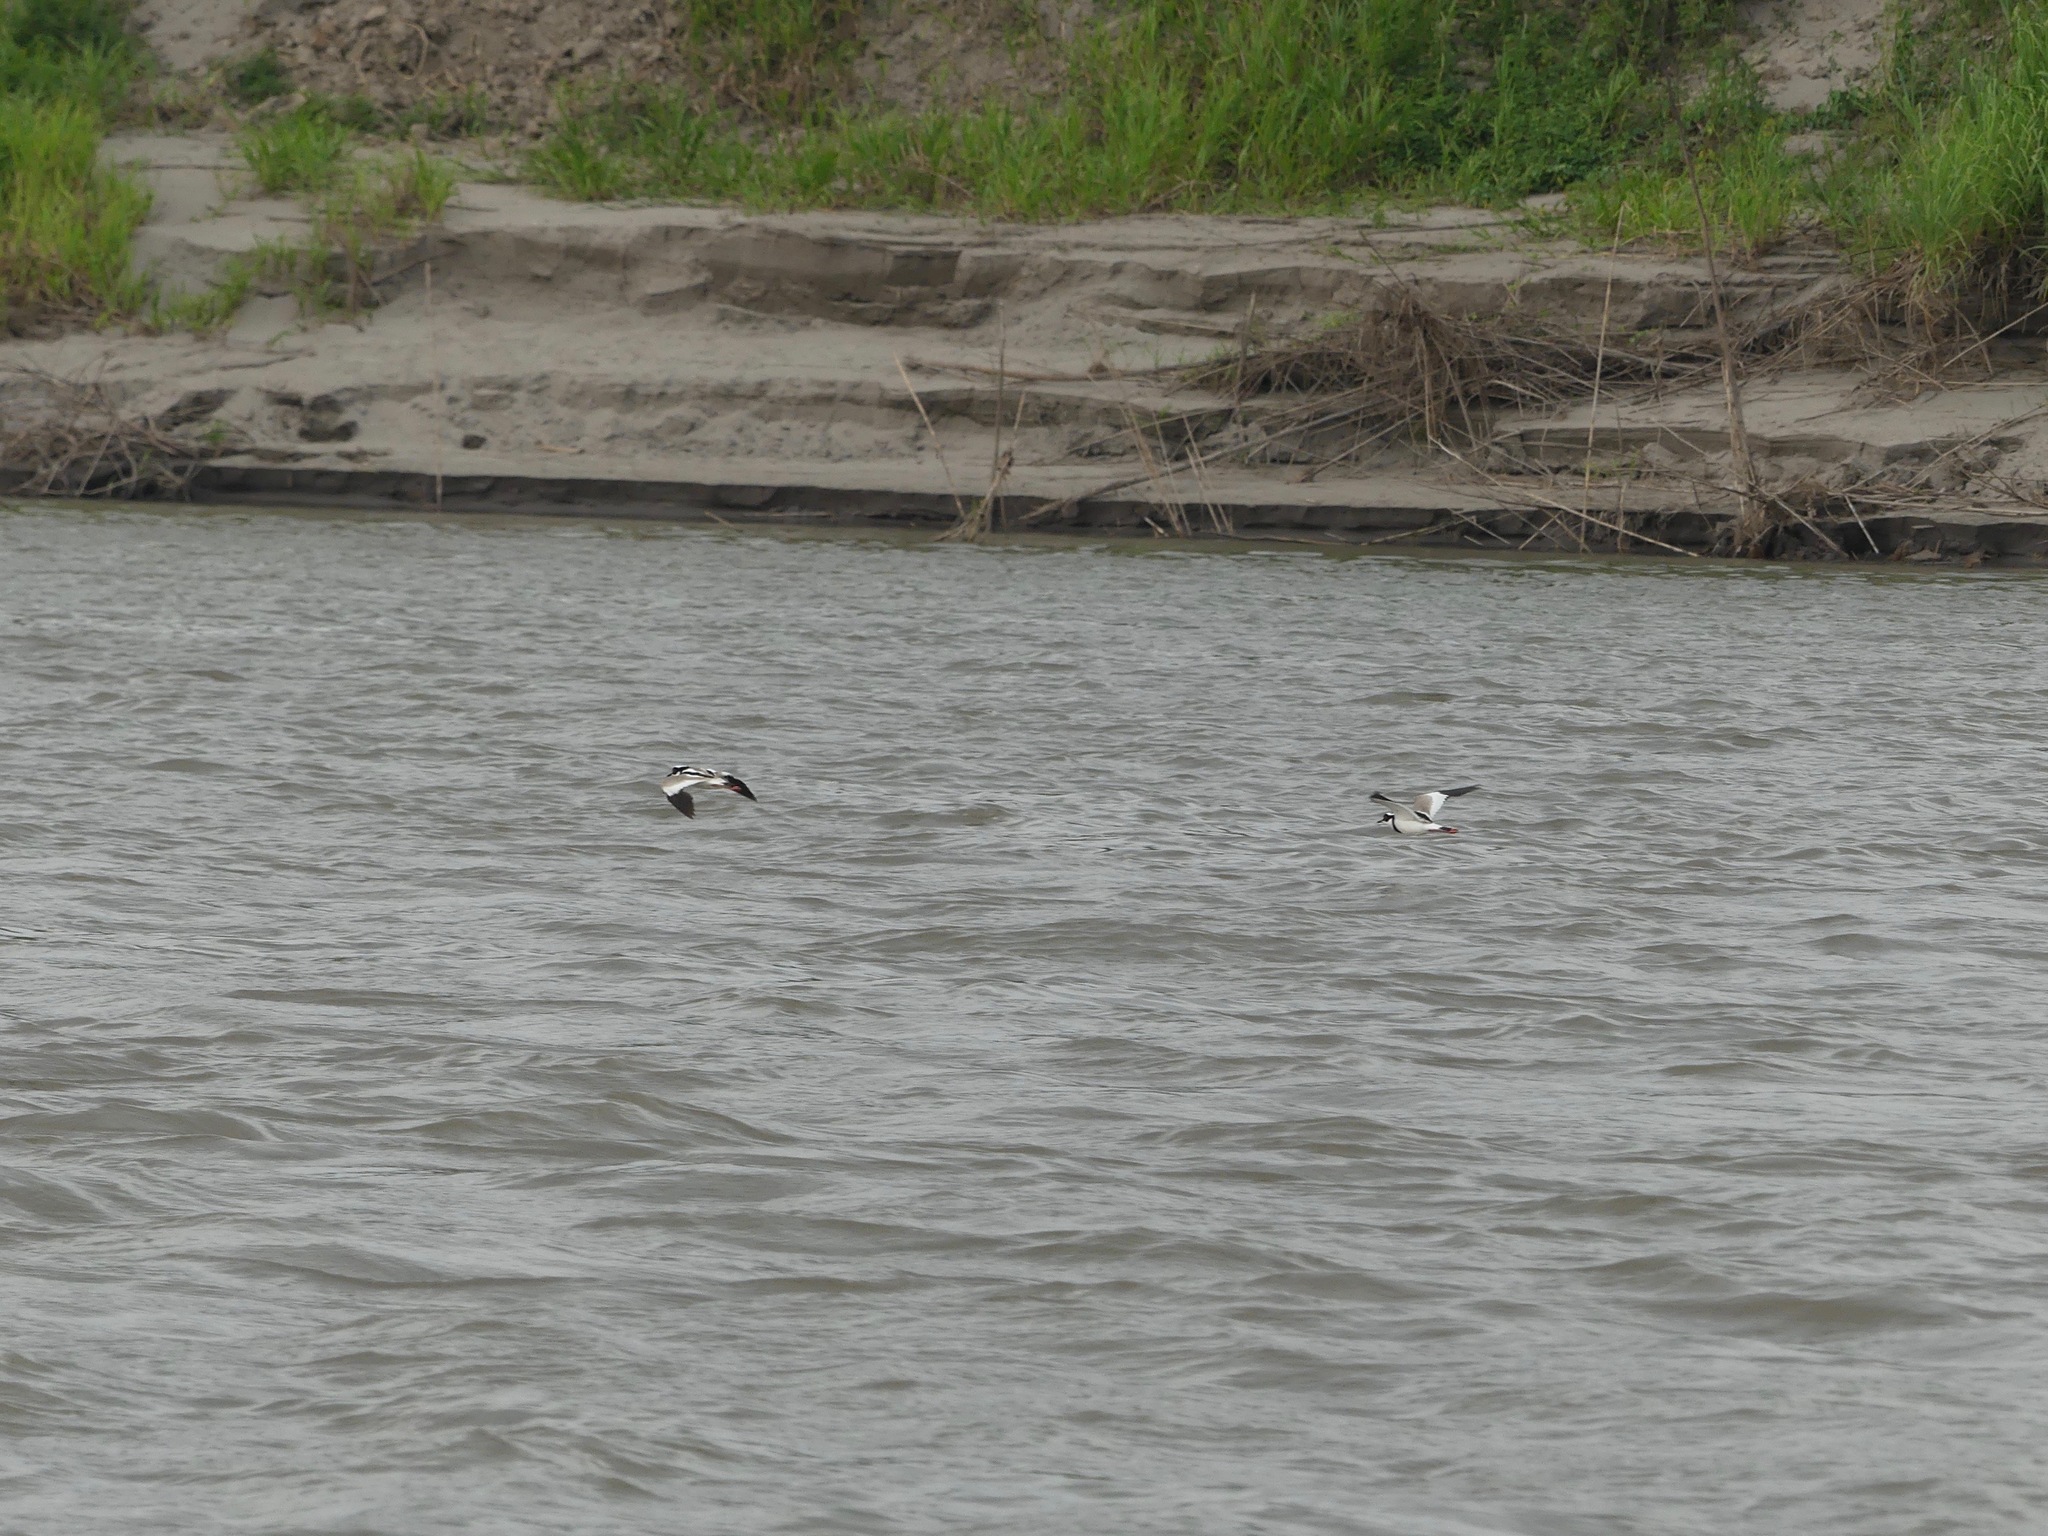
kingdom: Animalia
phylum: Chordata
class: Aves
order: Charadriiformes
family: Charadriidae
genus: Hoploxypterus
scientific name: Hoploxypterus cayanus
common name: Pied plover
